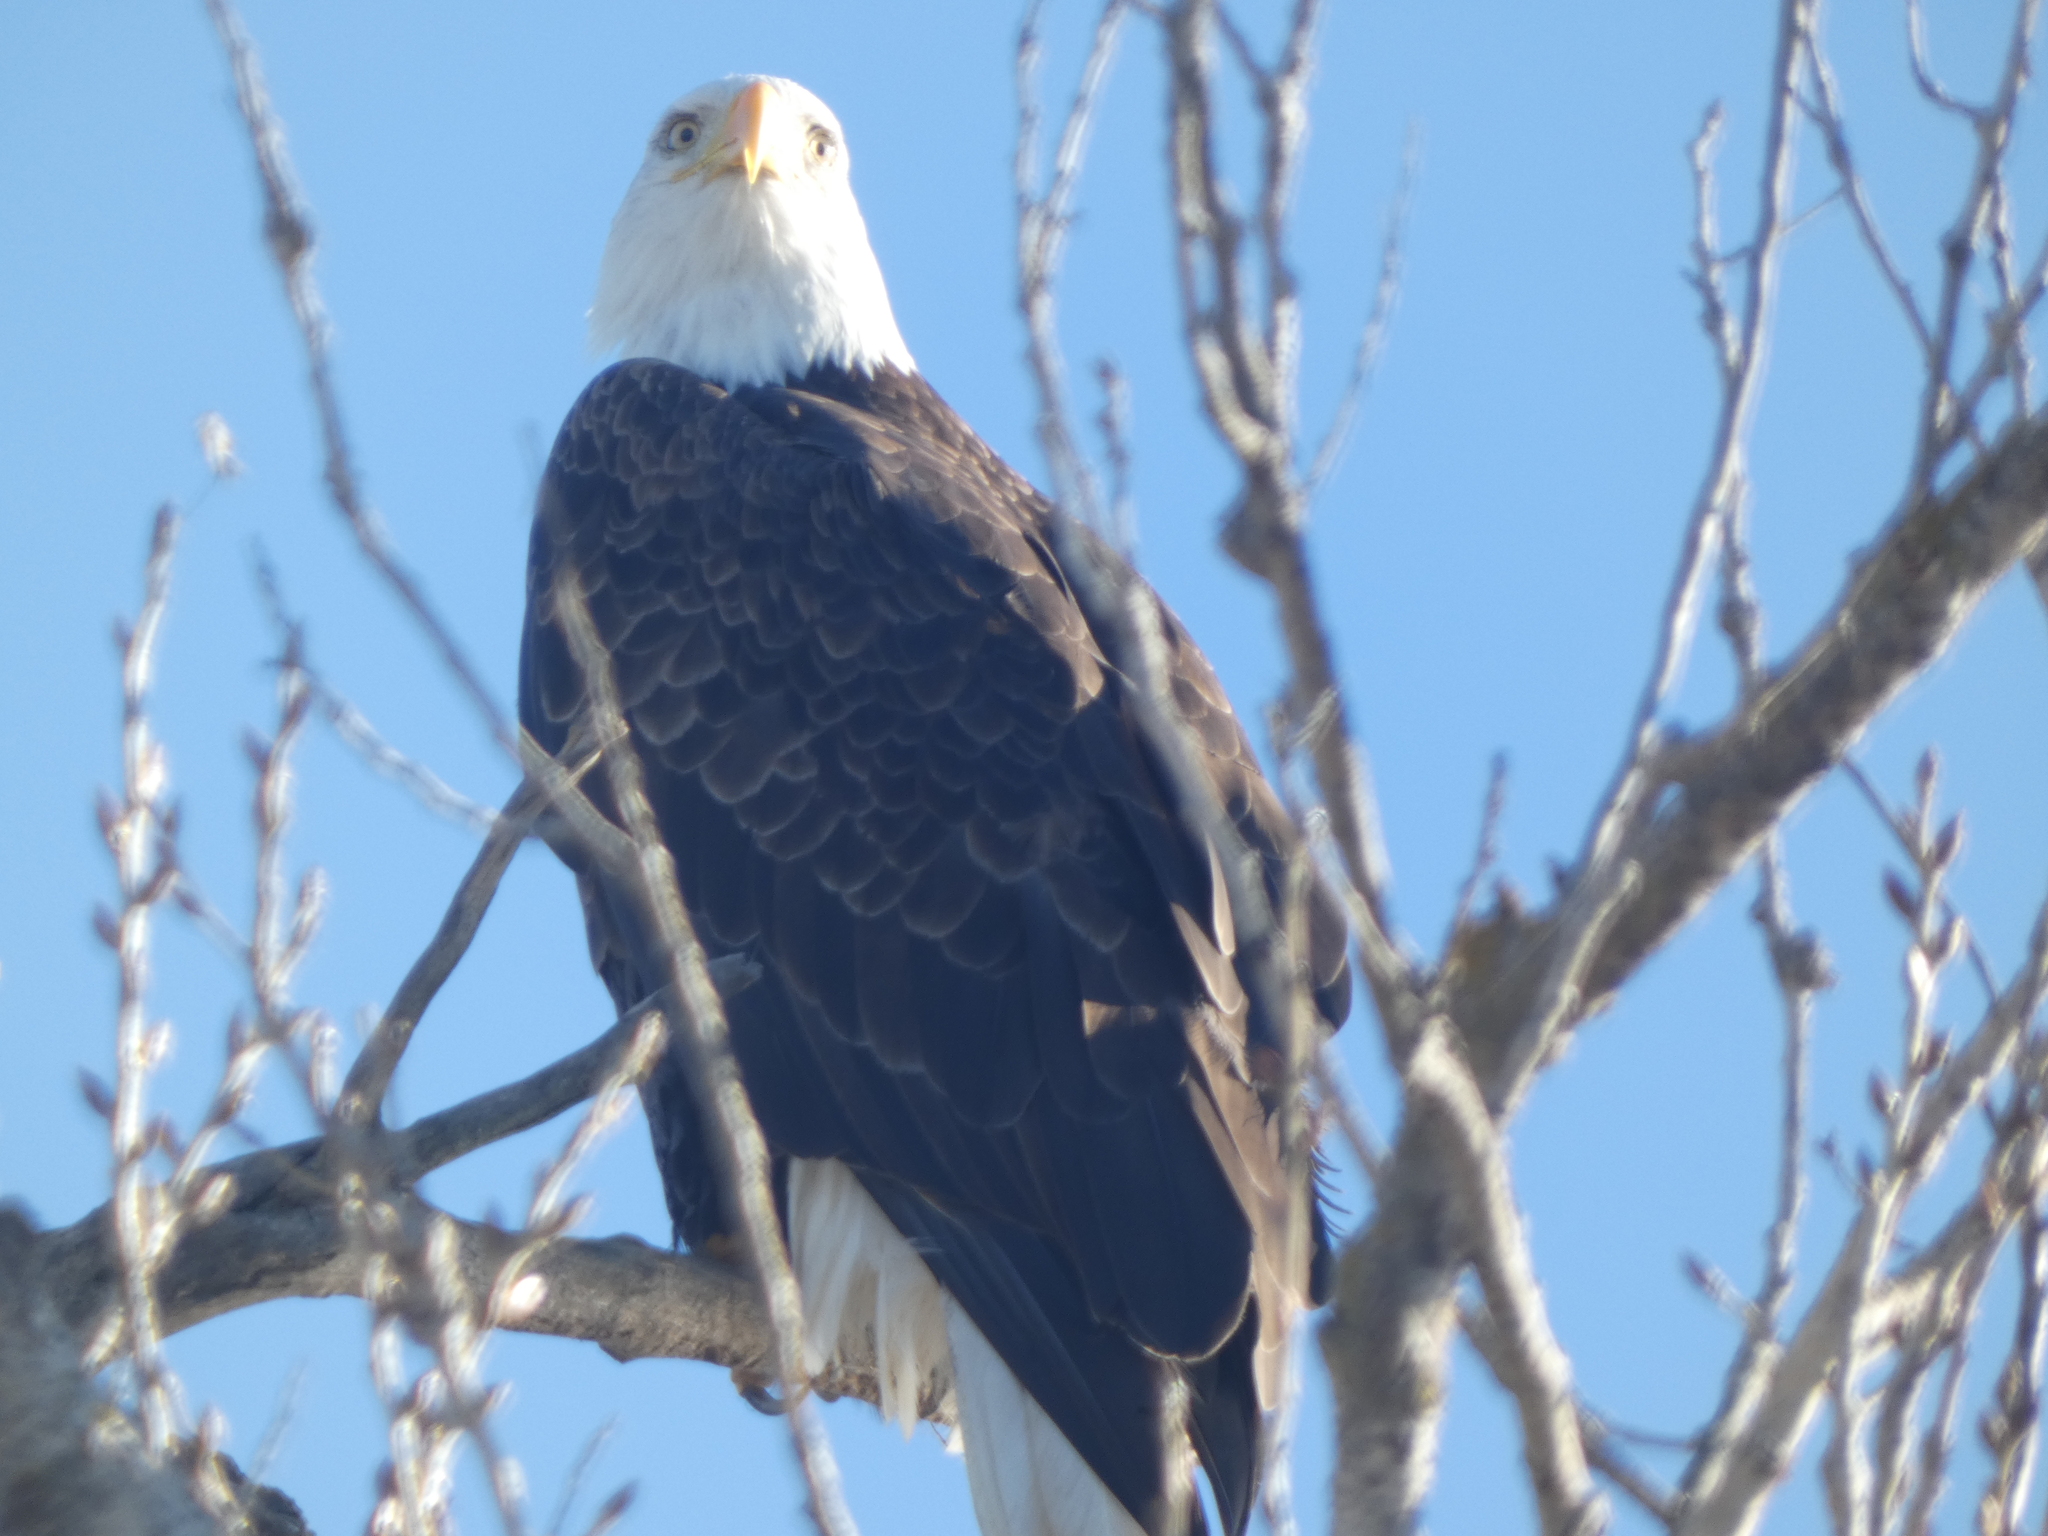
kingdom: Animalia
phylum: Chordata
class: Aves
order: Accipitriformes
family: Accipitridae
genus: Haliaeetus
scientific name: Haliaeetus leucocephalus
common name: Bald eagle
